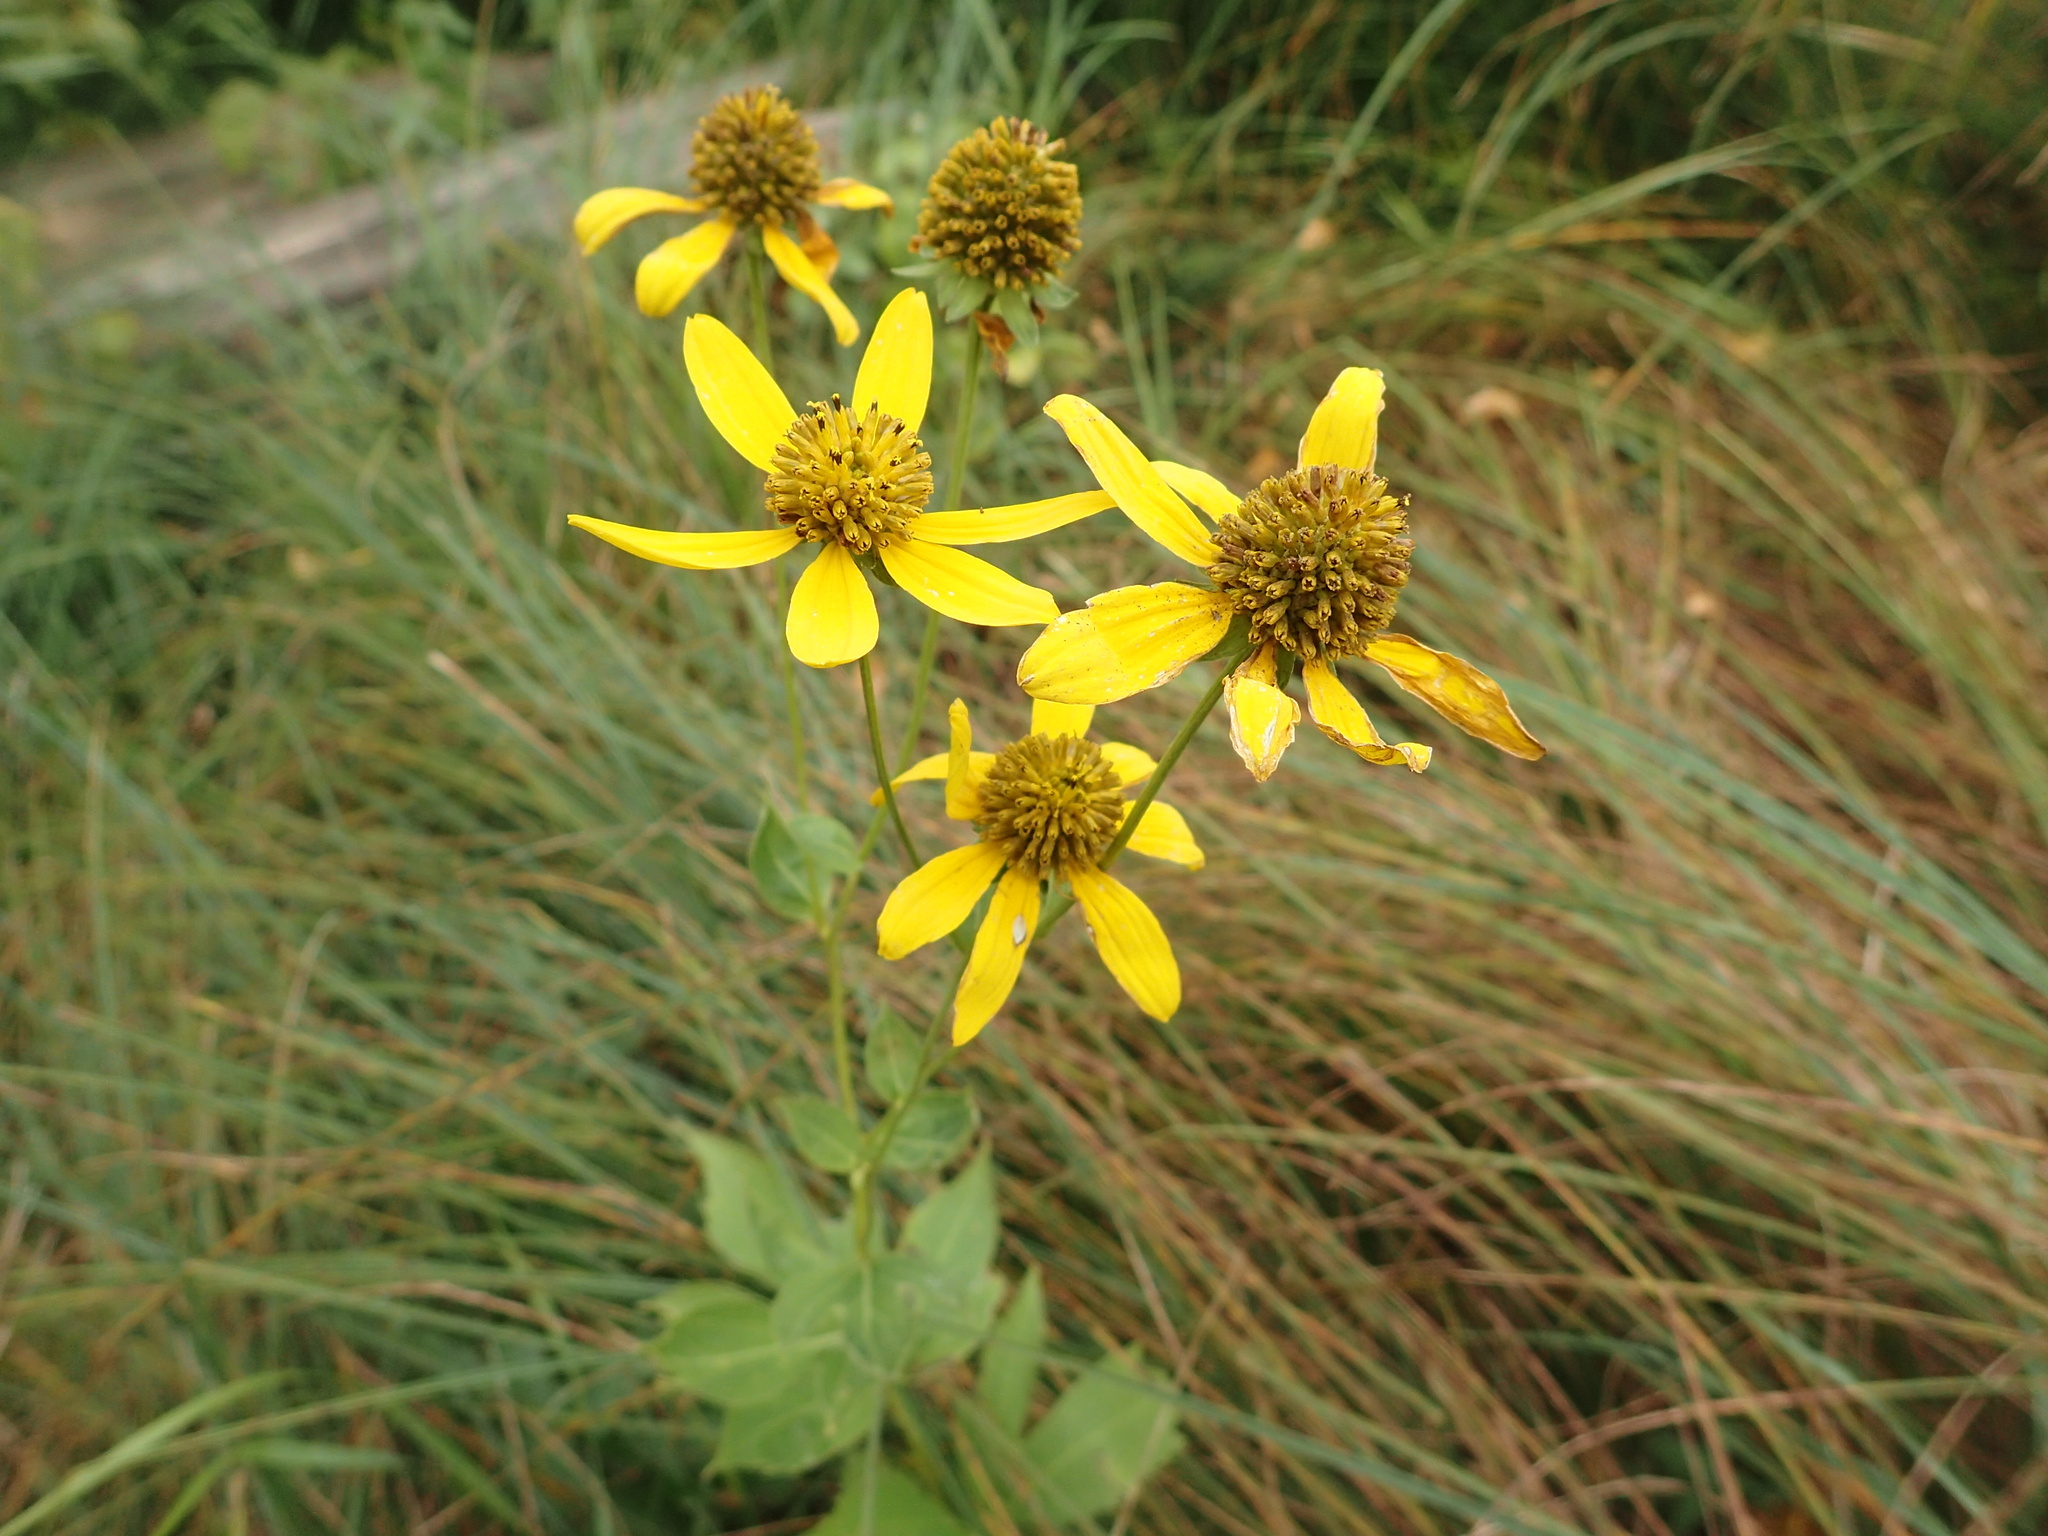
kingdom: Plantae
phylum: Tracheophyta
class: Magnoliopsida
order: Asterales
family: Asteraceae
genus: Rudbeckia
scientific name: Rudbeckia laciniata
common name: Coneflower
